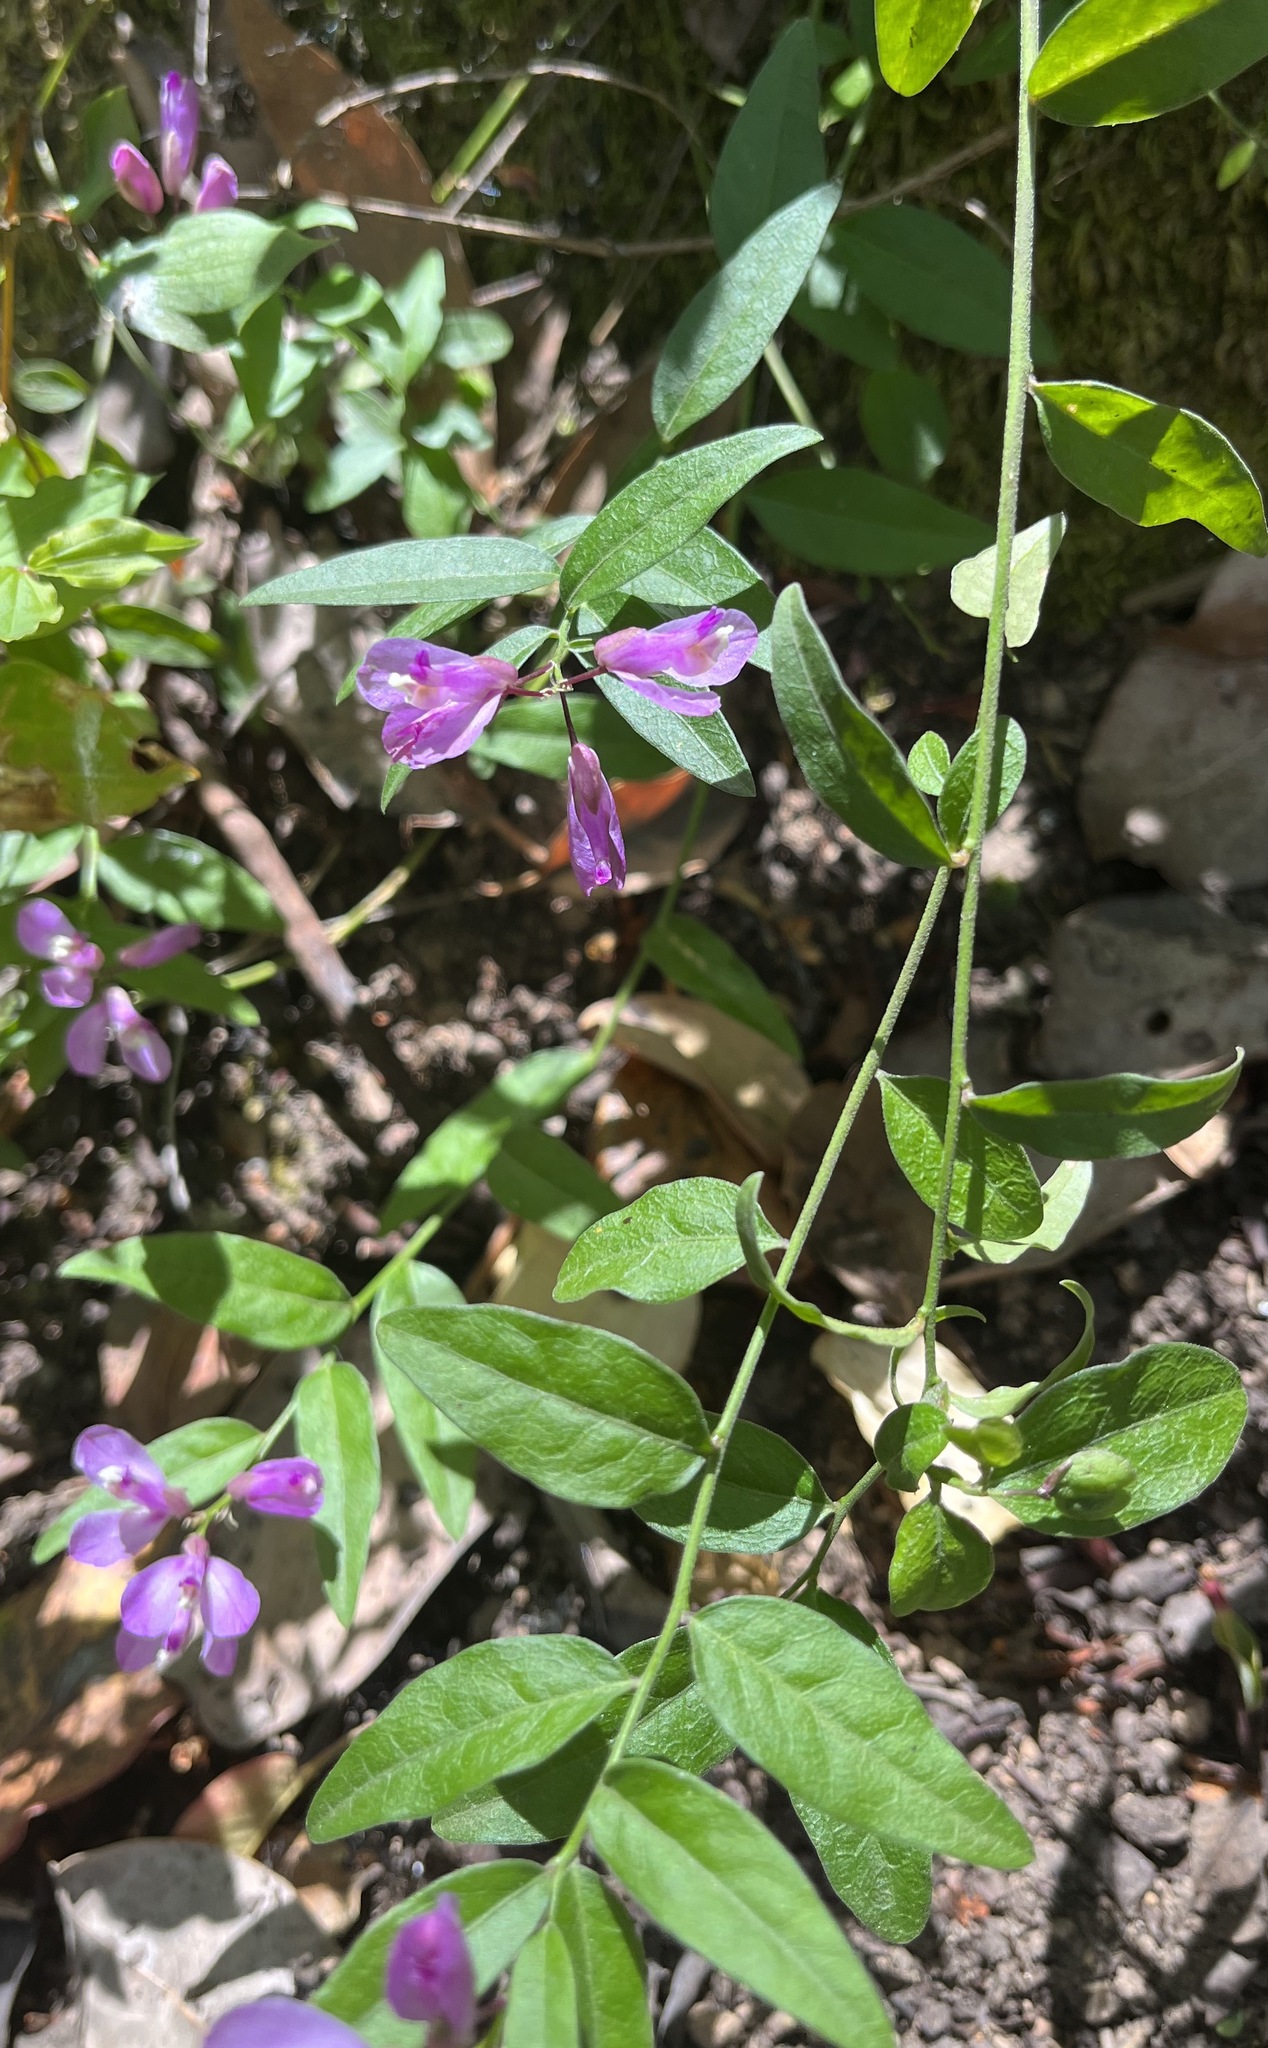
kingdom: Plantae
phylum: Tracheophyta
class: Magnoliopsida
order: Fabales
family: Polygalaceae
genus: Rhinotropis
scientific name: Rhinotropis californica
